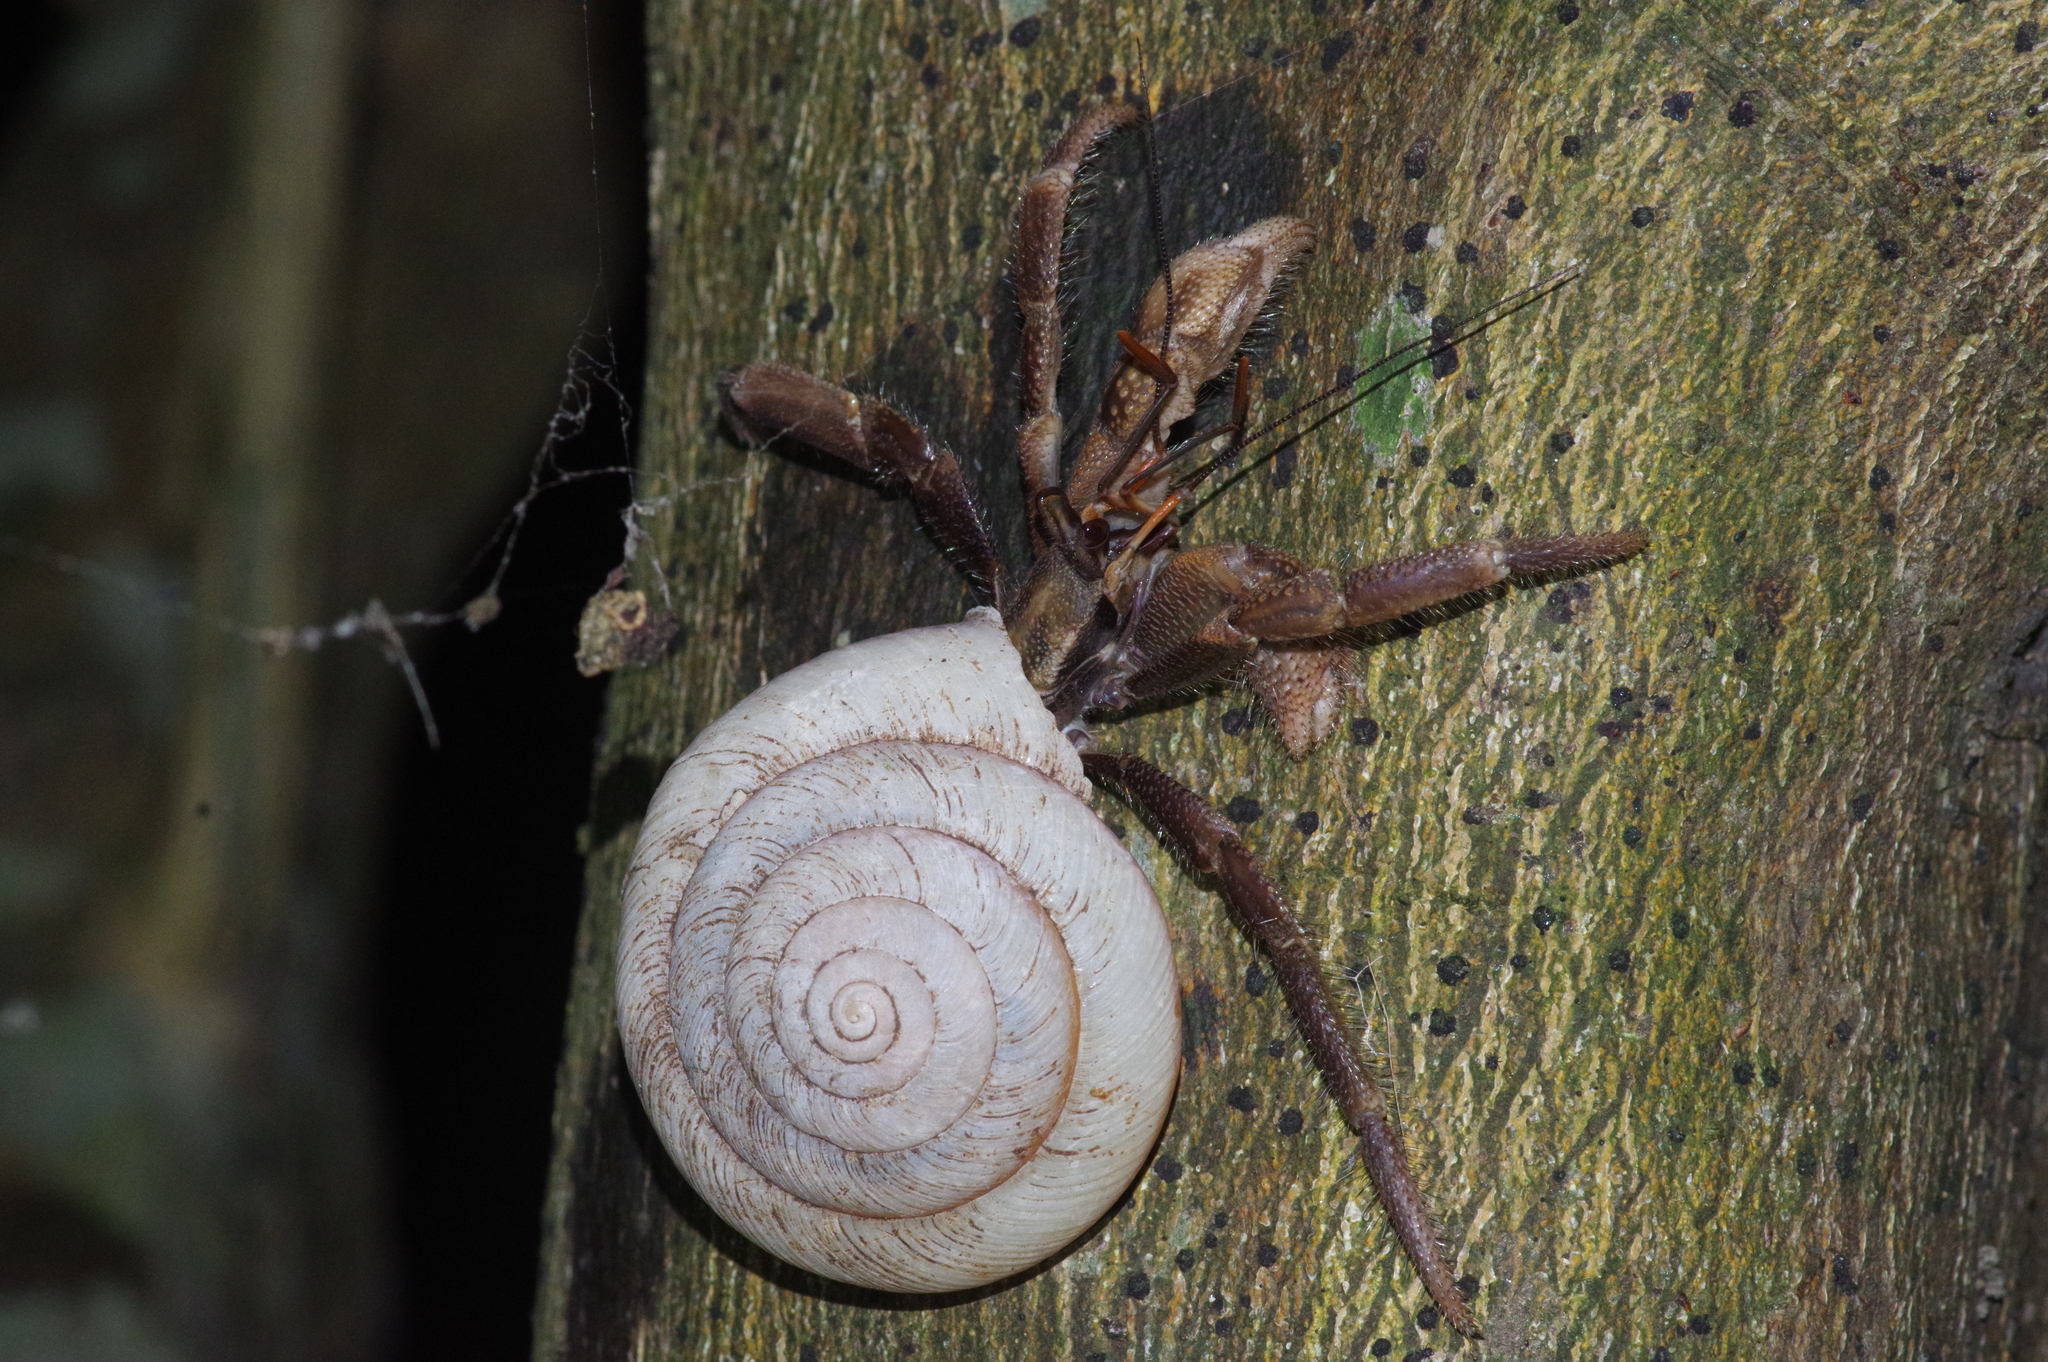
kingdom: Animalia
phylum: Arthropoda
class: Malacostraca
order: Decapoda
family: Coenobitidae
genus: Coenobita
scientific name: Coenobita cavipes
